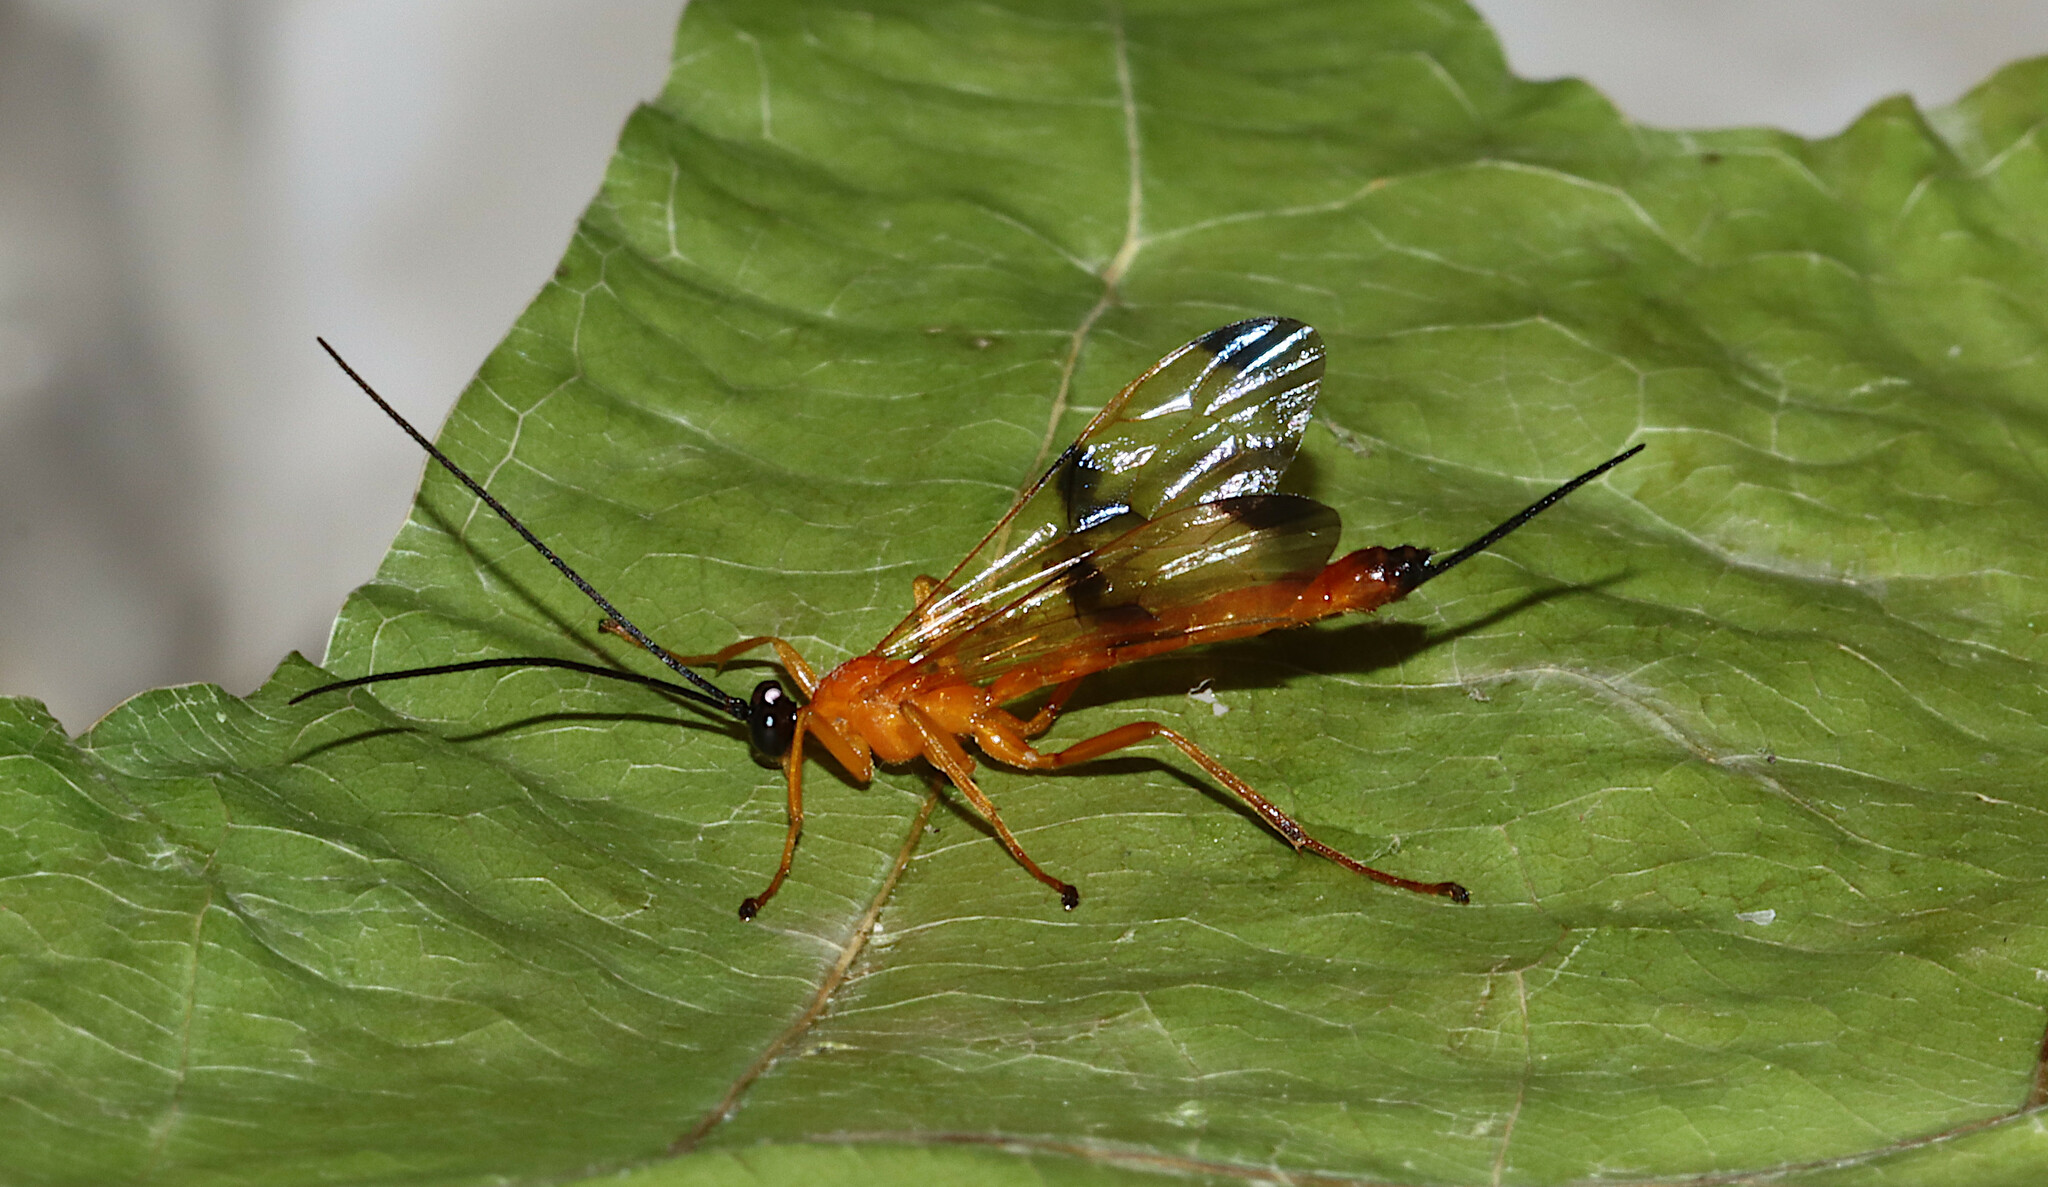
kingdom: Animalia
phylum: Arthropoda
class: Insecta
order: Hymenoptera
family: Ichneumonidae
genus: Acrotaphus
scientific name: Acrotaphus wiltii
